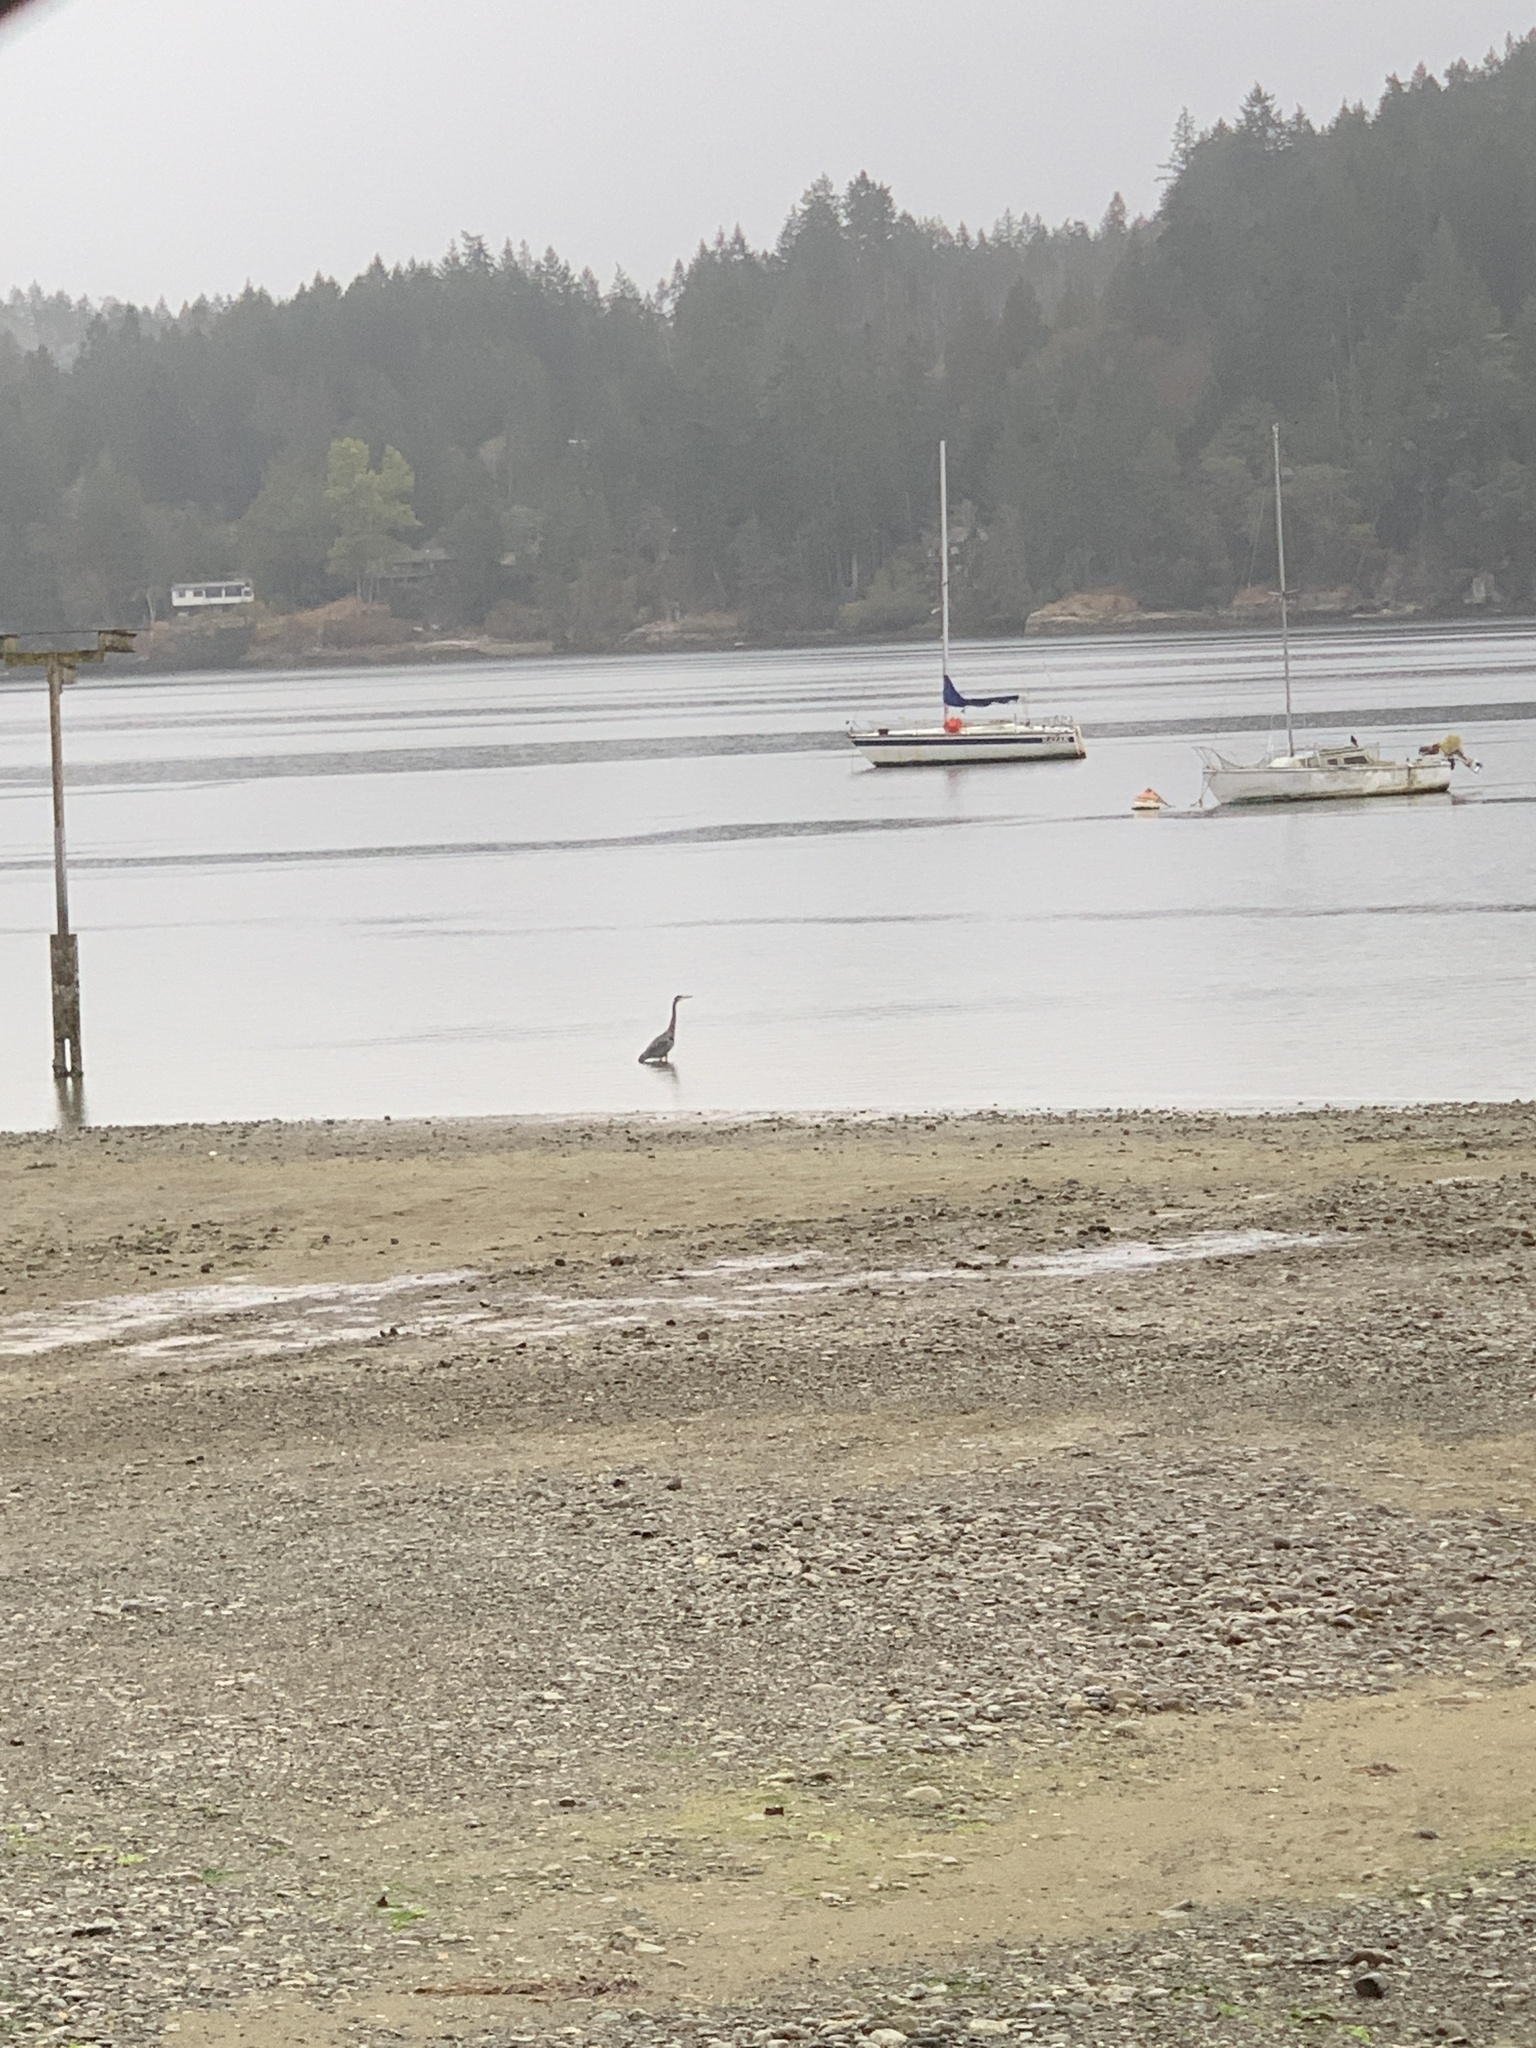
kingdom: Animalia
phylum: Chordata
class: Aves
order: Pelecaniformes
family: Ardeidae
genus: Ardea
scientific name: Ardea herodias
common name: Great blue heron
